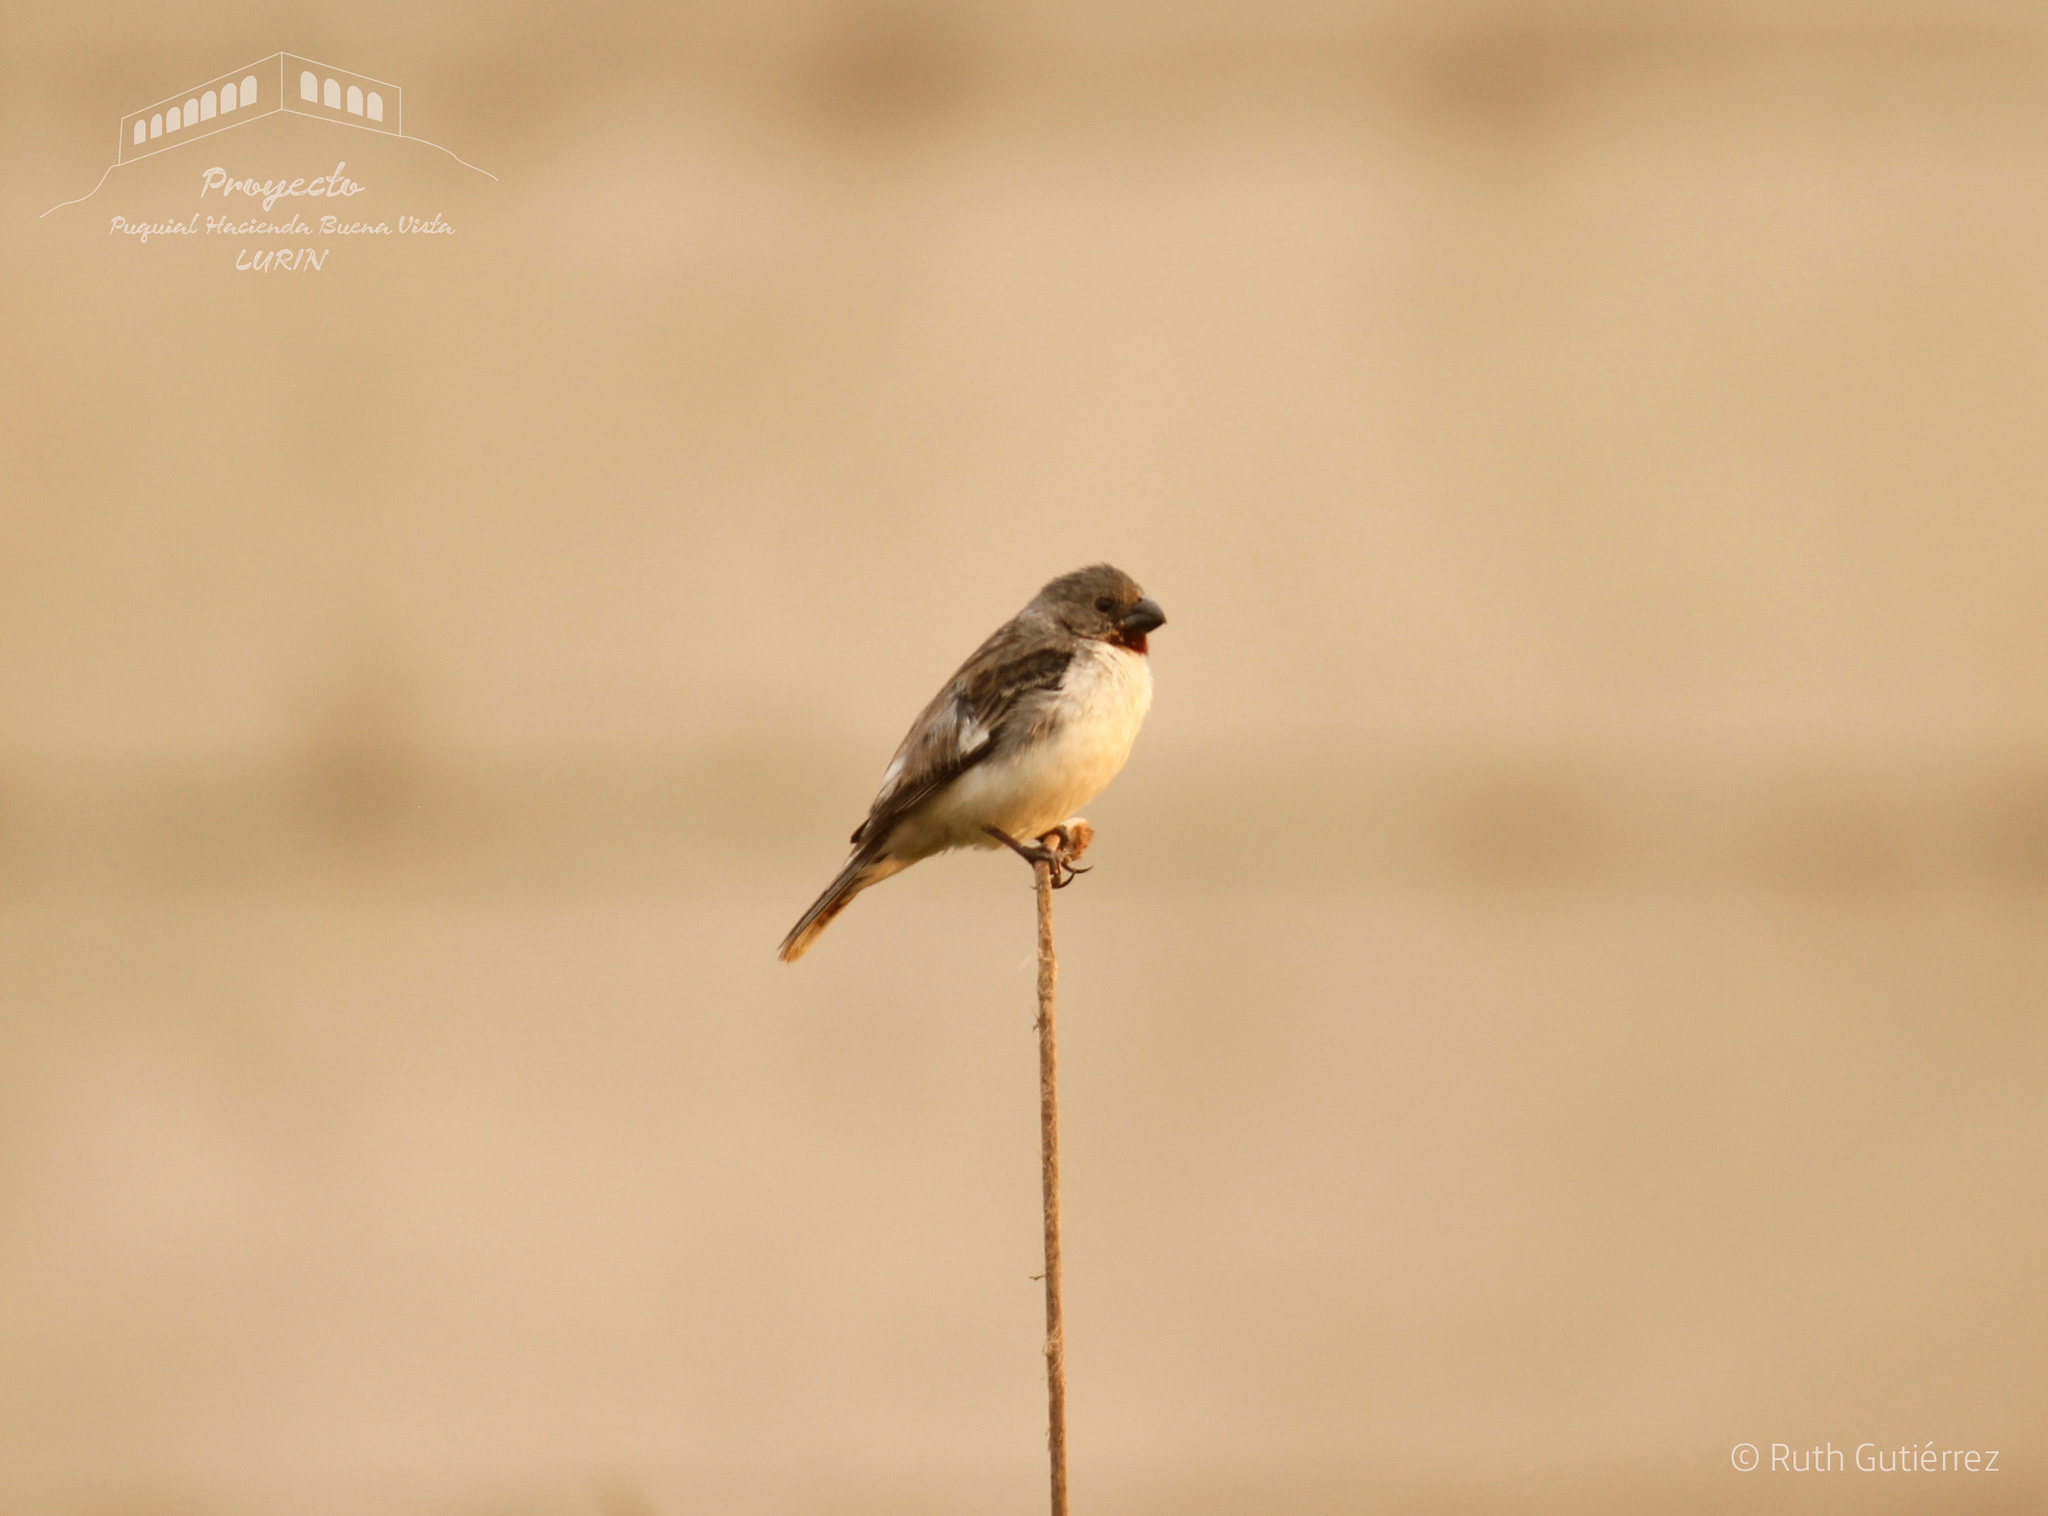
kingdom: Animalia
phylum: Chordata
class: Aves
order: Passeriformes
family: Thraupidae
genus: Sporophila
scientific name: Sporophila telasco
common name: Chestnut-throated seedeater
